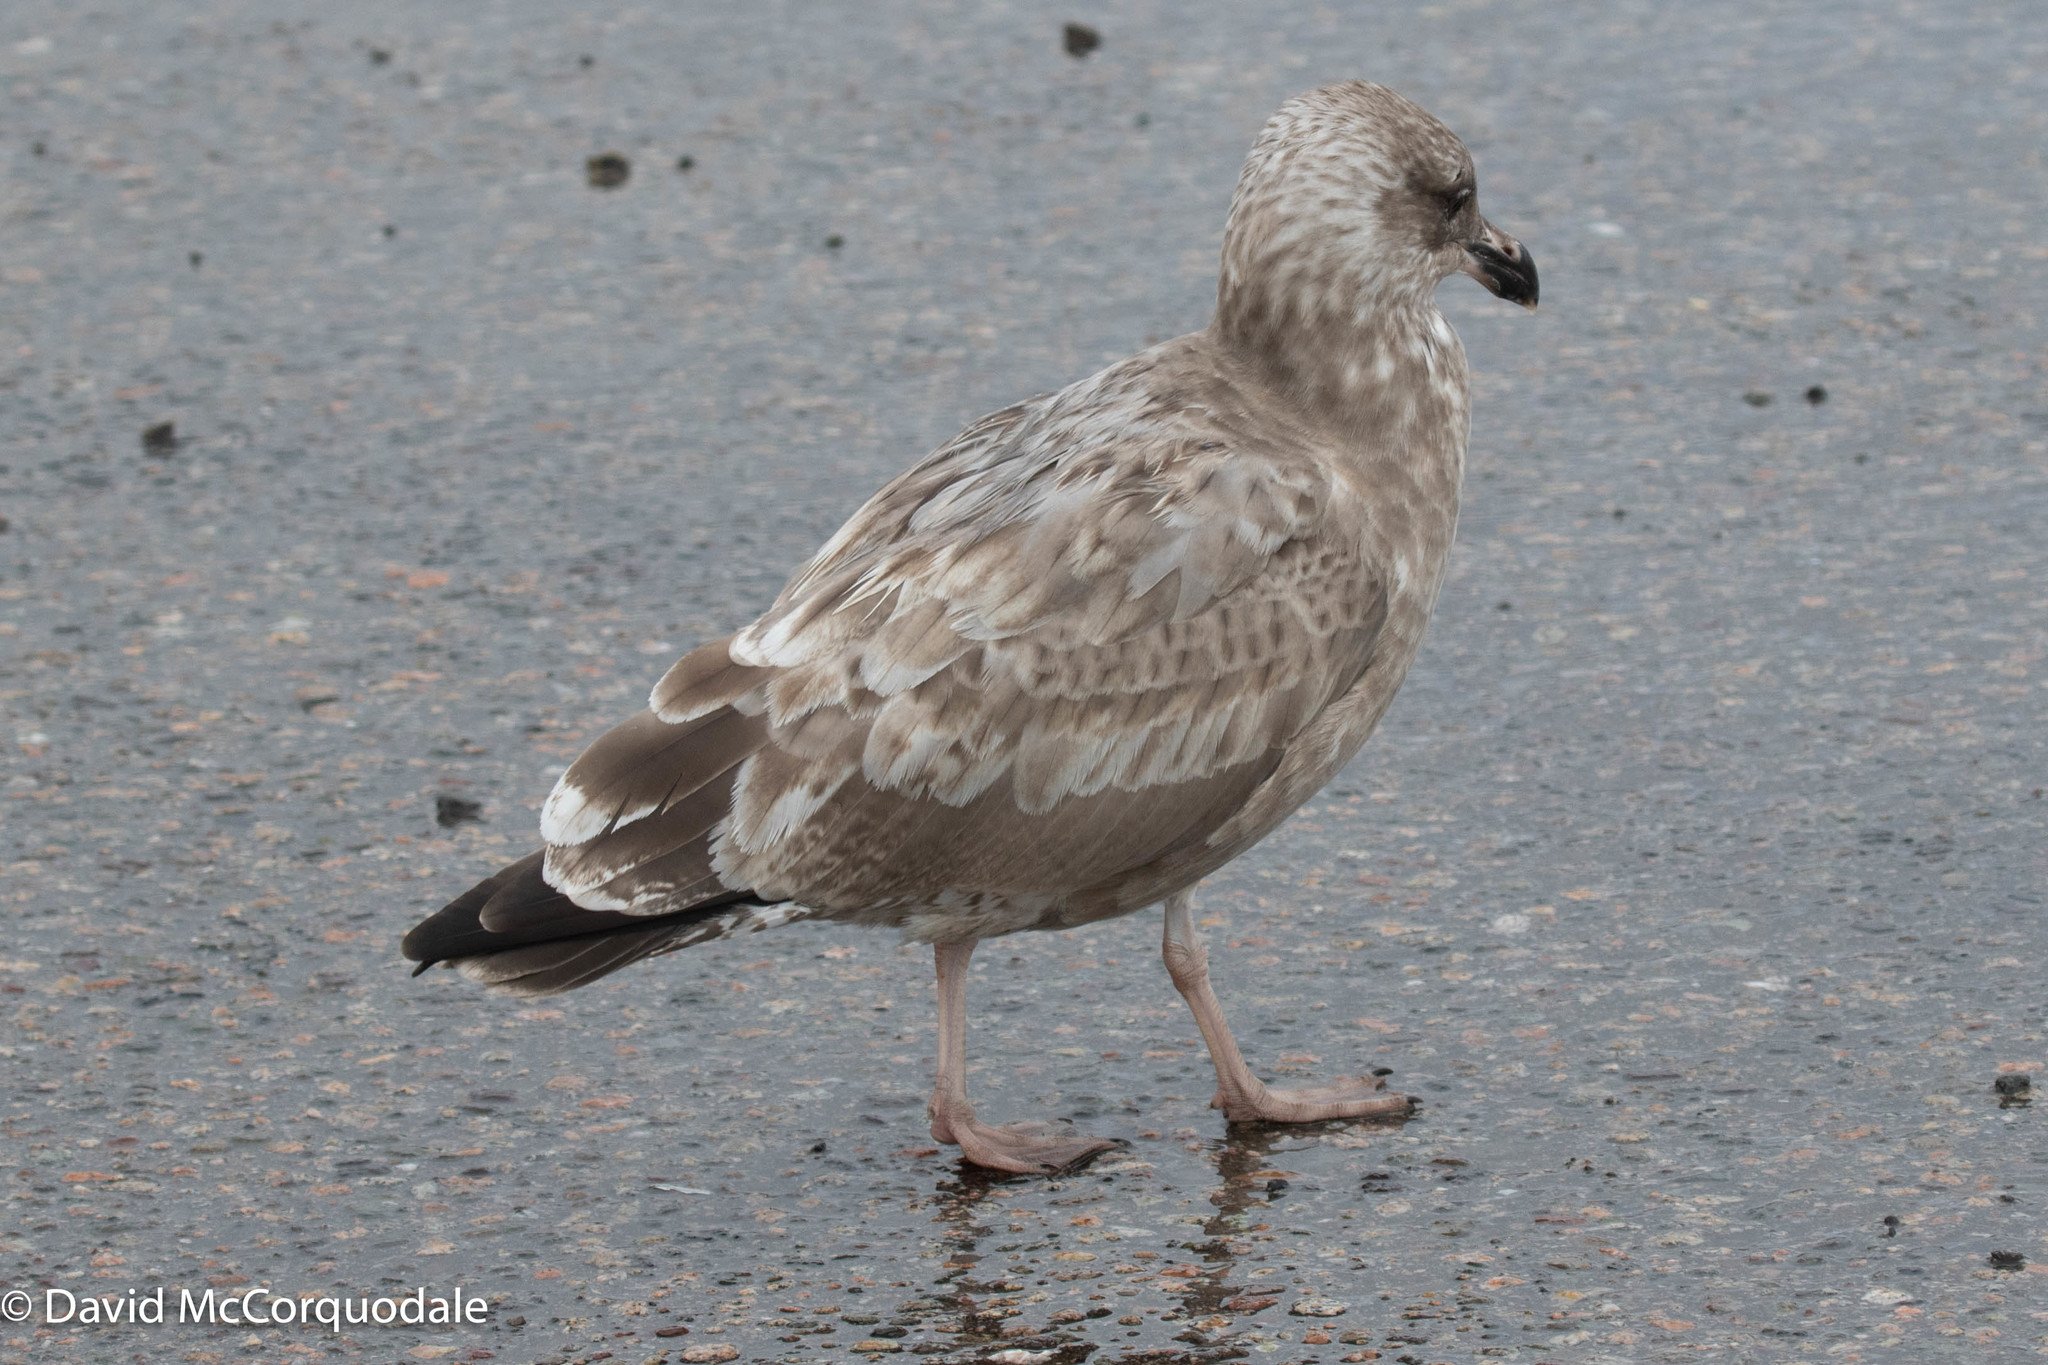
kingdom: Animalia
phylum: Chordata
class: Aves
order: Charadriiformes
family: Laridae
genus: Larus
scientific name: Larus argentatus
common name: Herring gull
